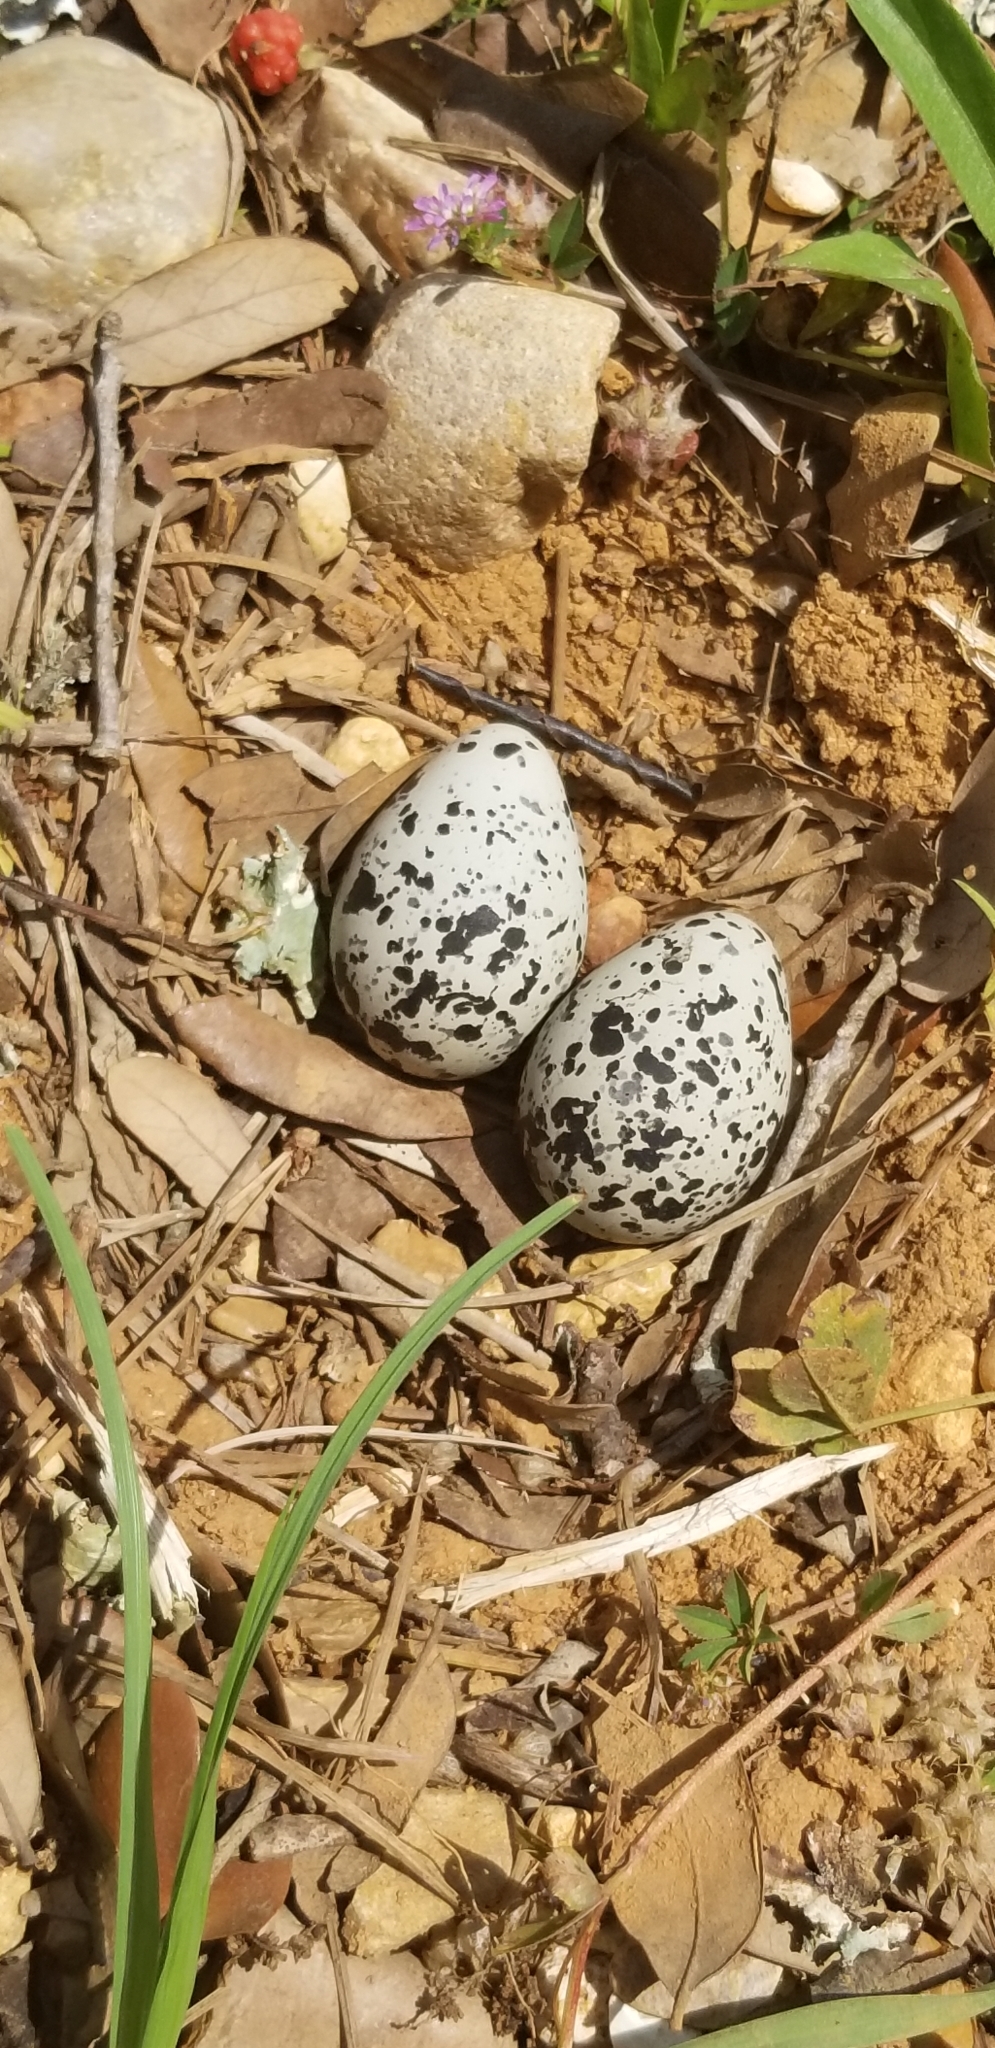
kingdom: Animalia
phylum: Chordata
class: Aves
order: Charadriiformes
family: Charadriidae
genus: Charadrius
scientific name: Charadrius vociferus
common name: Killdeer
